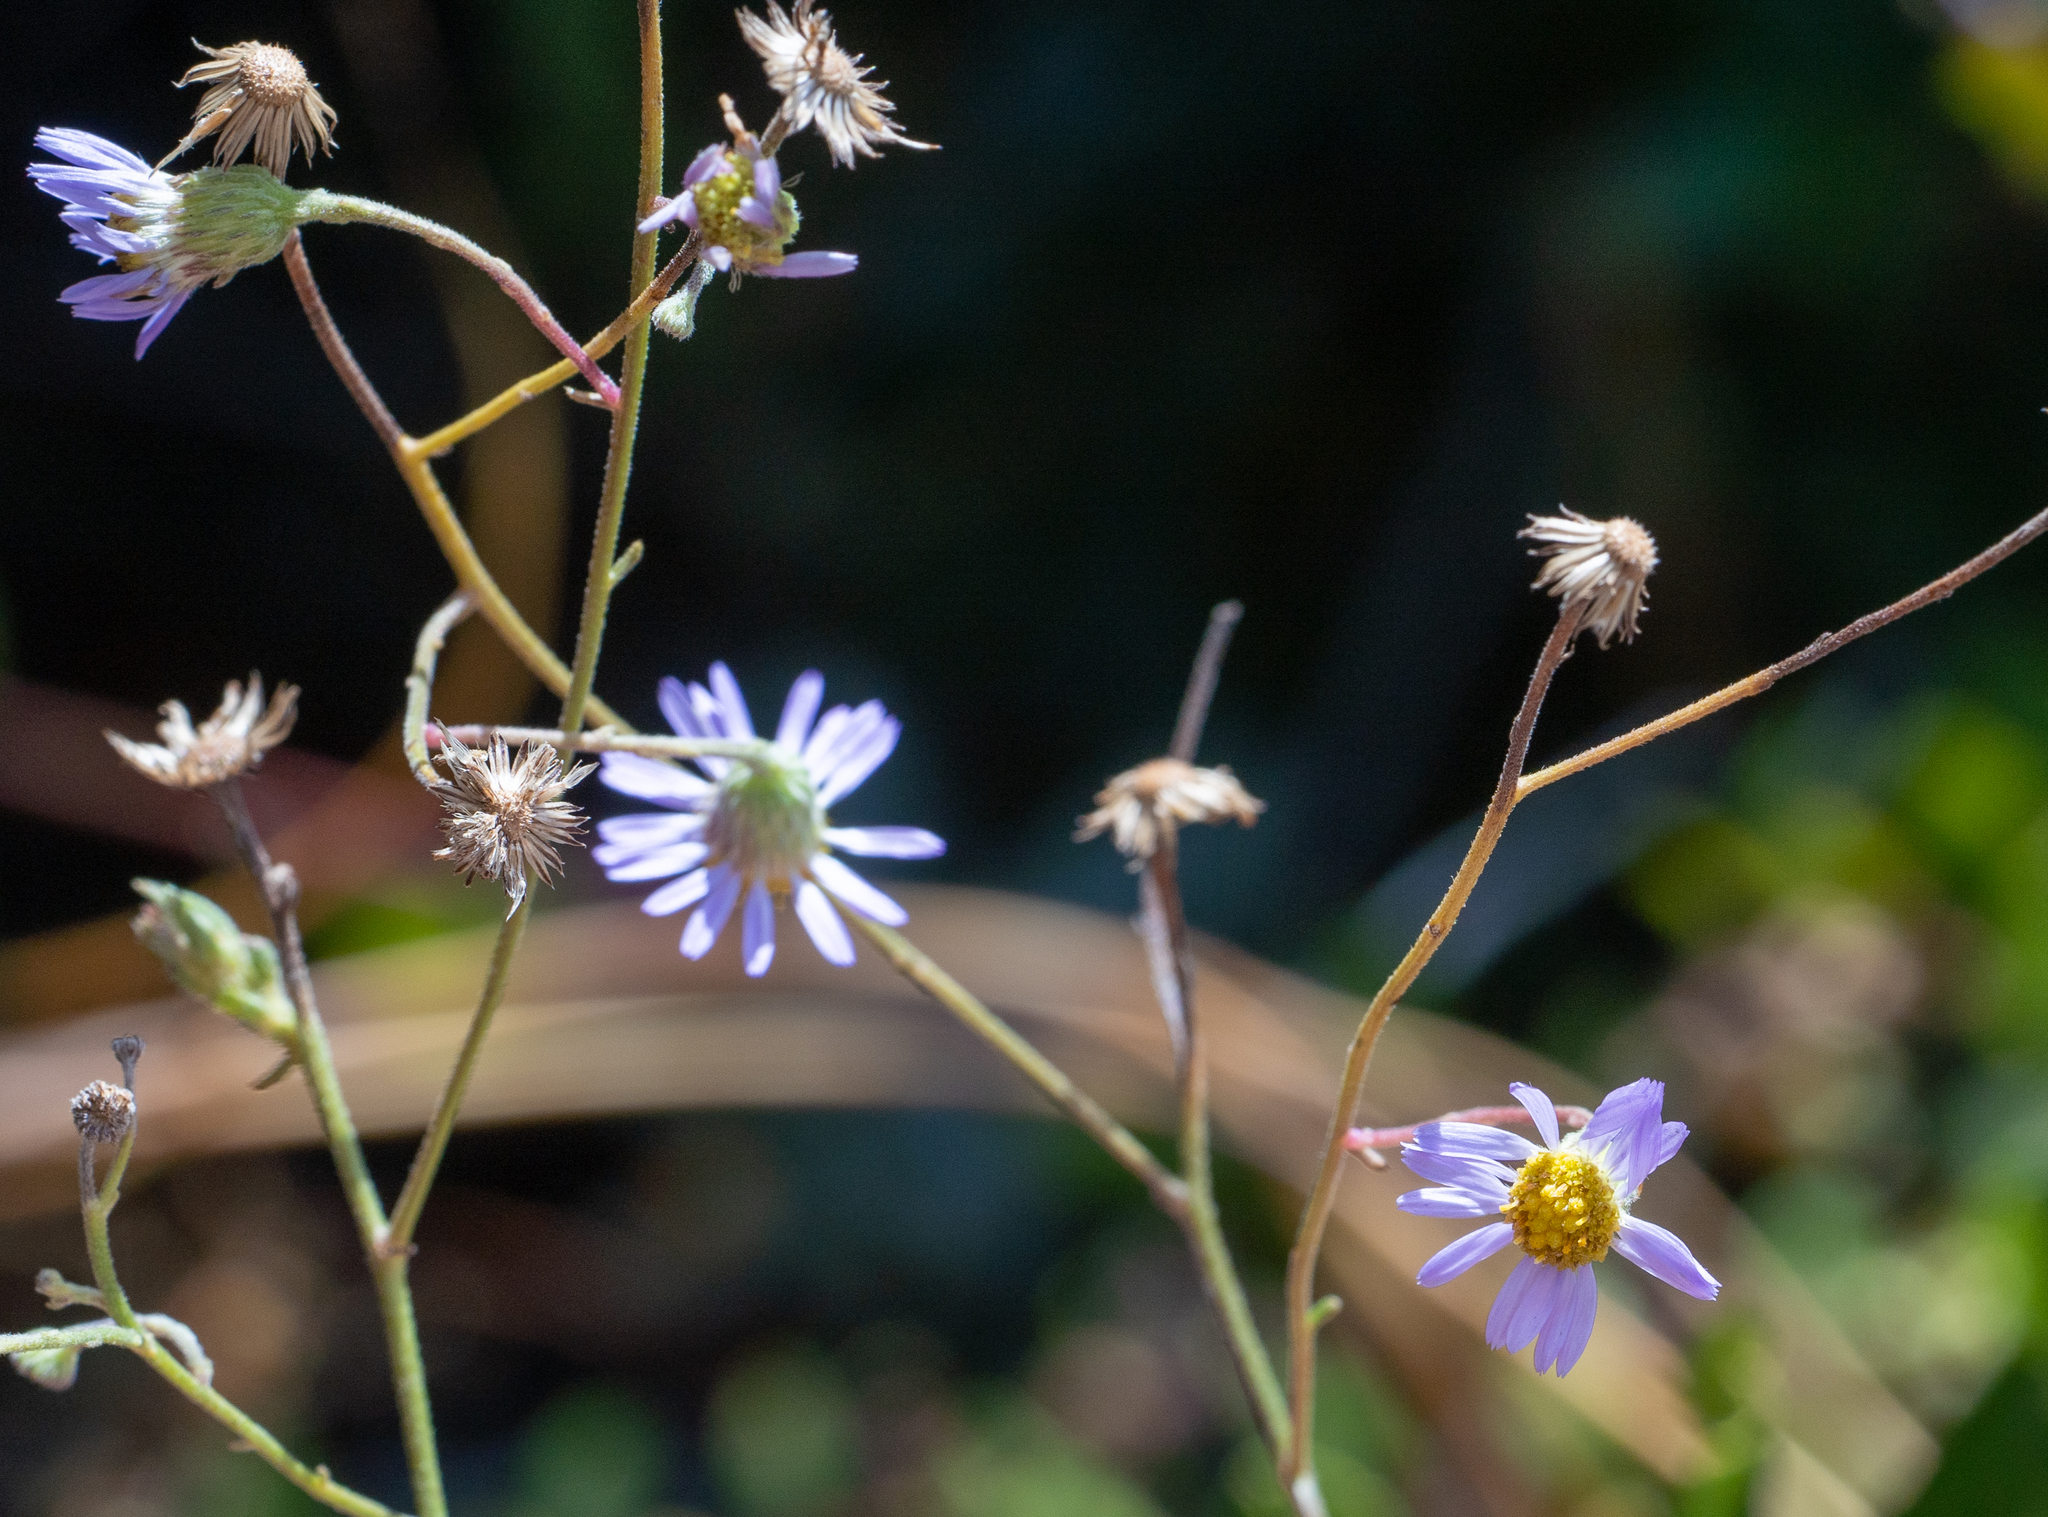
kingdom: Plantae
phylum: Tracheophyta
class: Magnoliopsida
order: Asterales
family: Asteraceae
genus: Erigeron
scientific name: Erigeron foliosus
